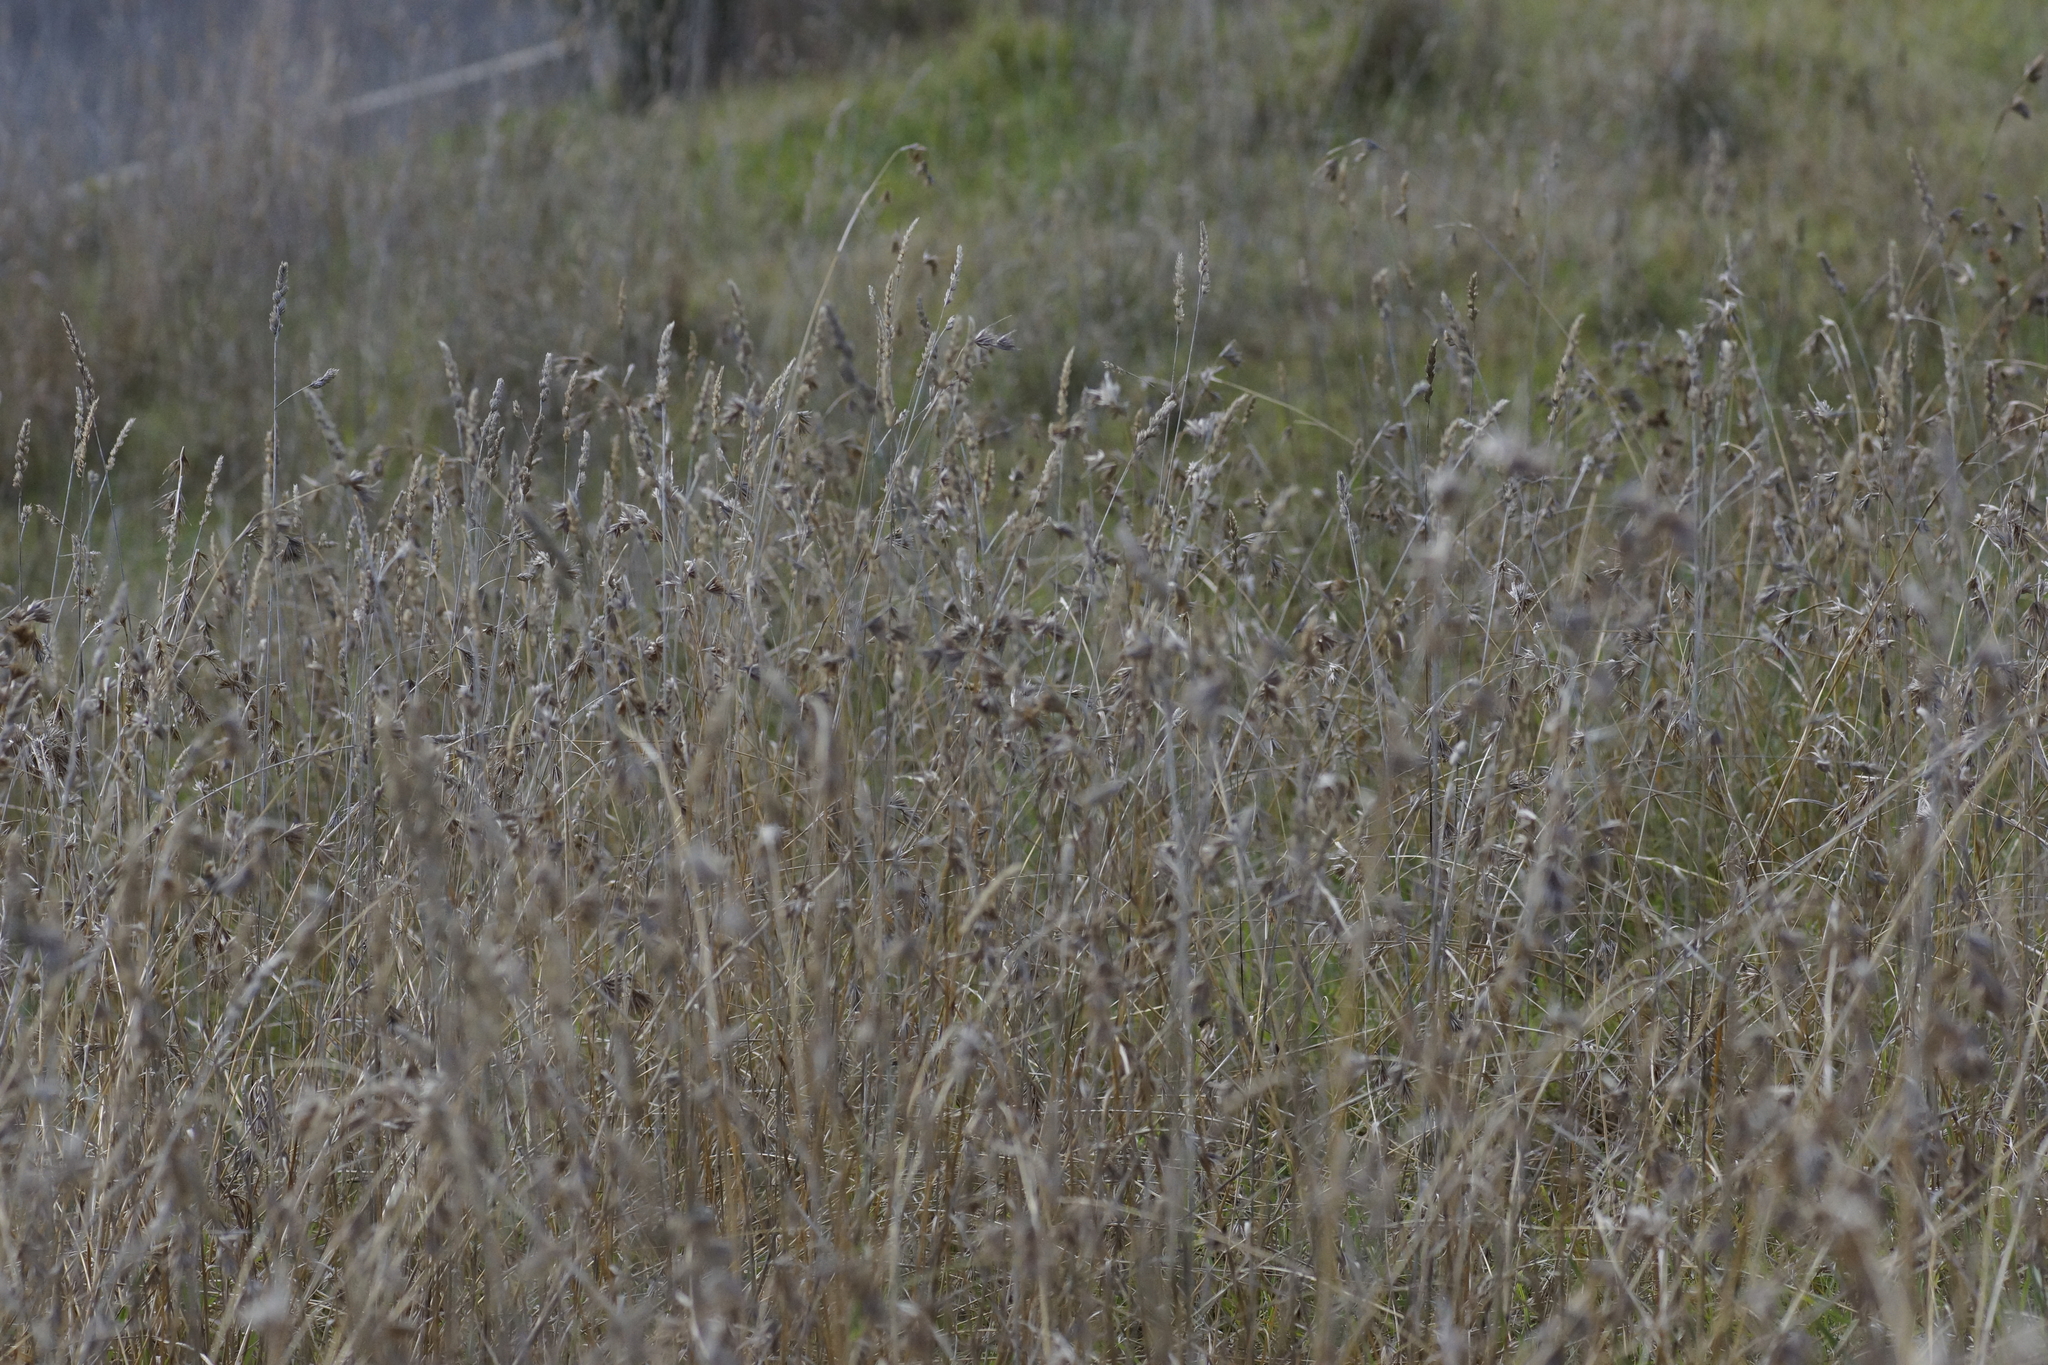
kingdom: Plantae
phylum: Tracheophyta
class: Liliopsida
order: Poales
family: Poaceae
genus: Themeda
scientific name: Themeda triandra
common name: Kangaroo grass
